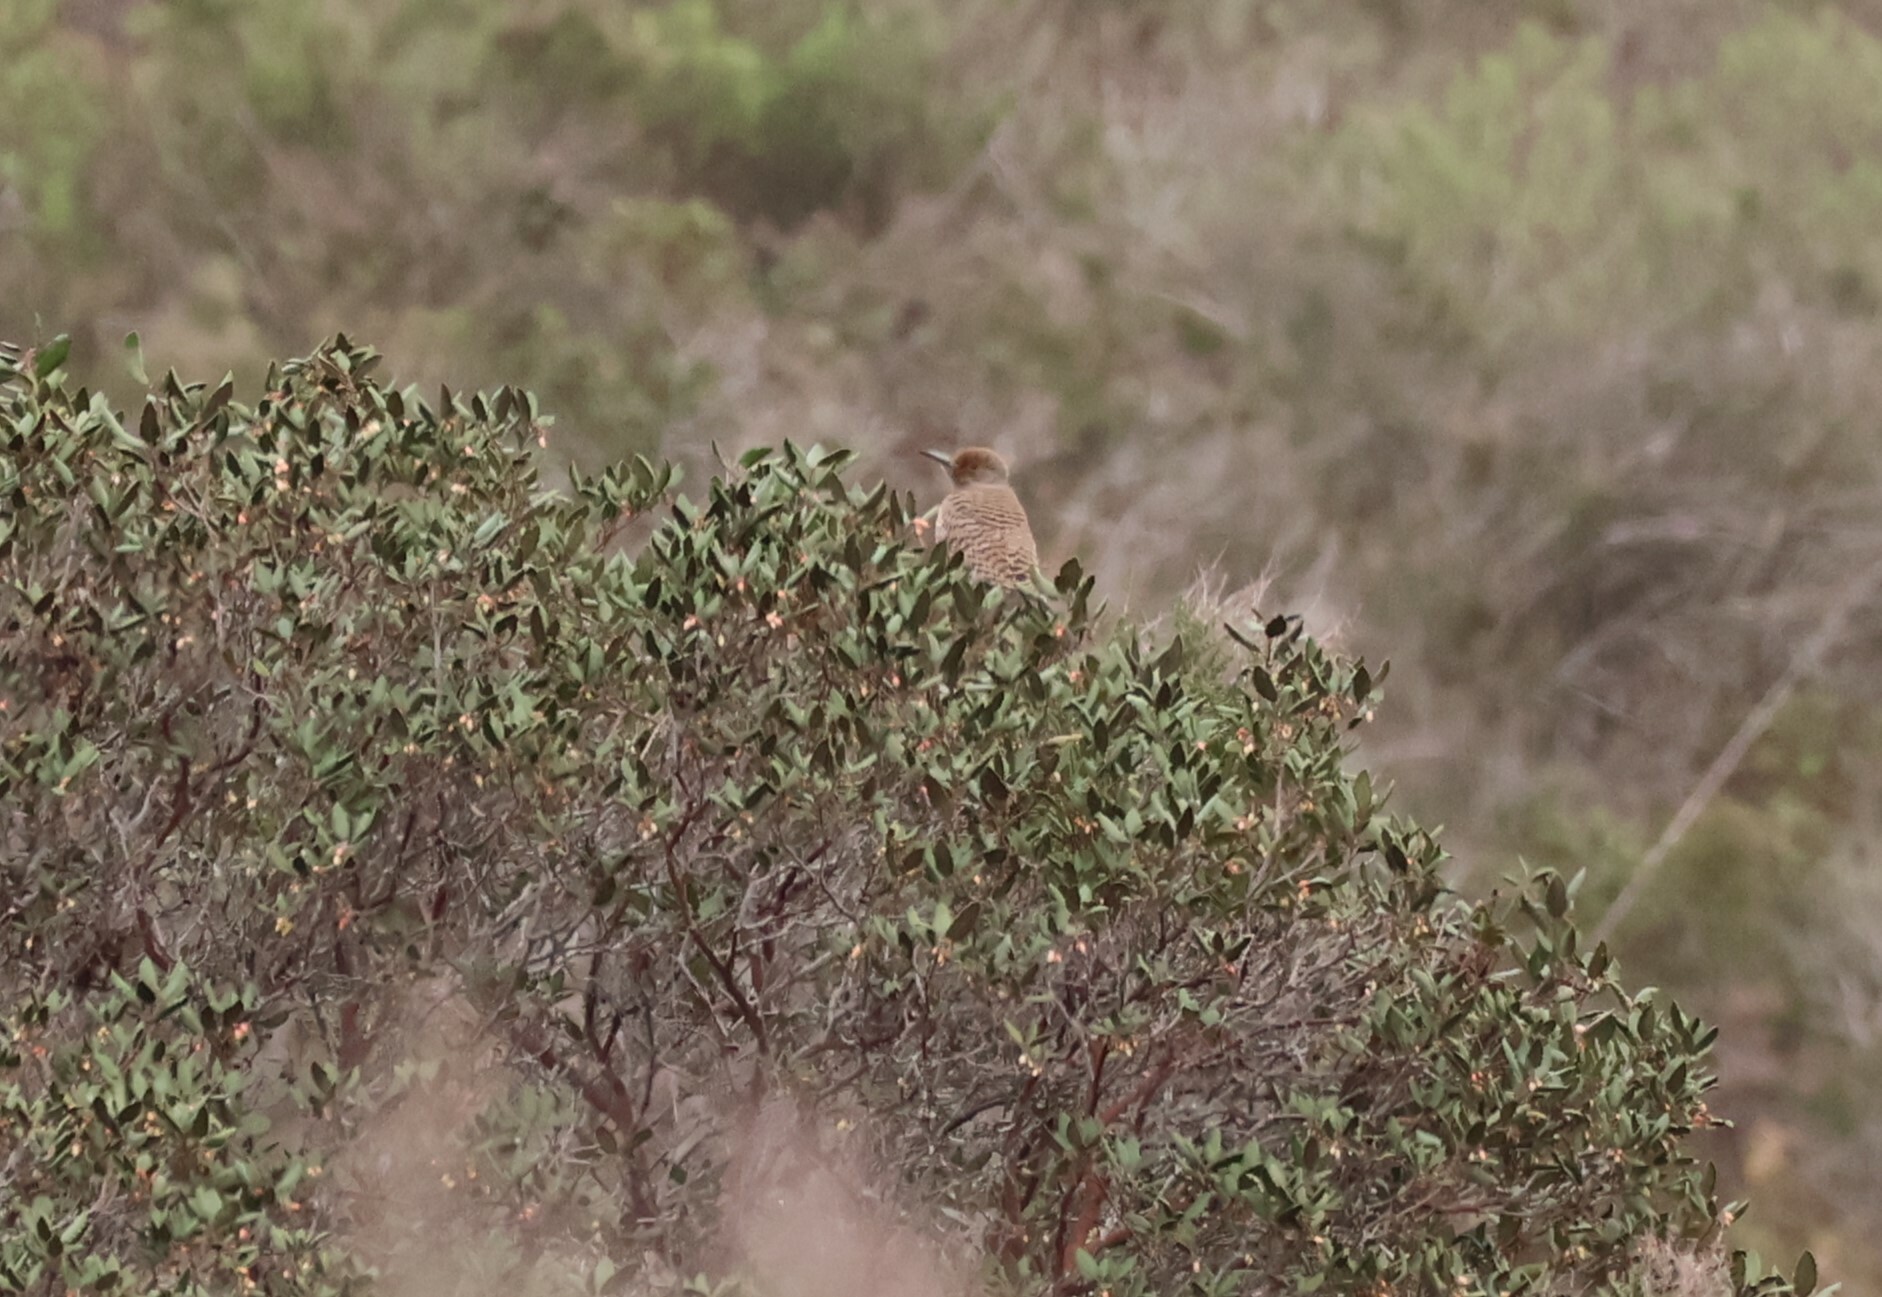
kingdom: Animalia
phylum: Chordata
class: Aves
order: Piciformes
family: Picidae
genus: Colaptes
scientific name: Colaptes auratus
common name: Northern flicker
